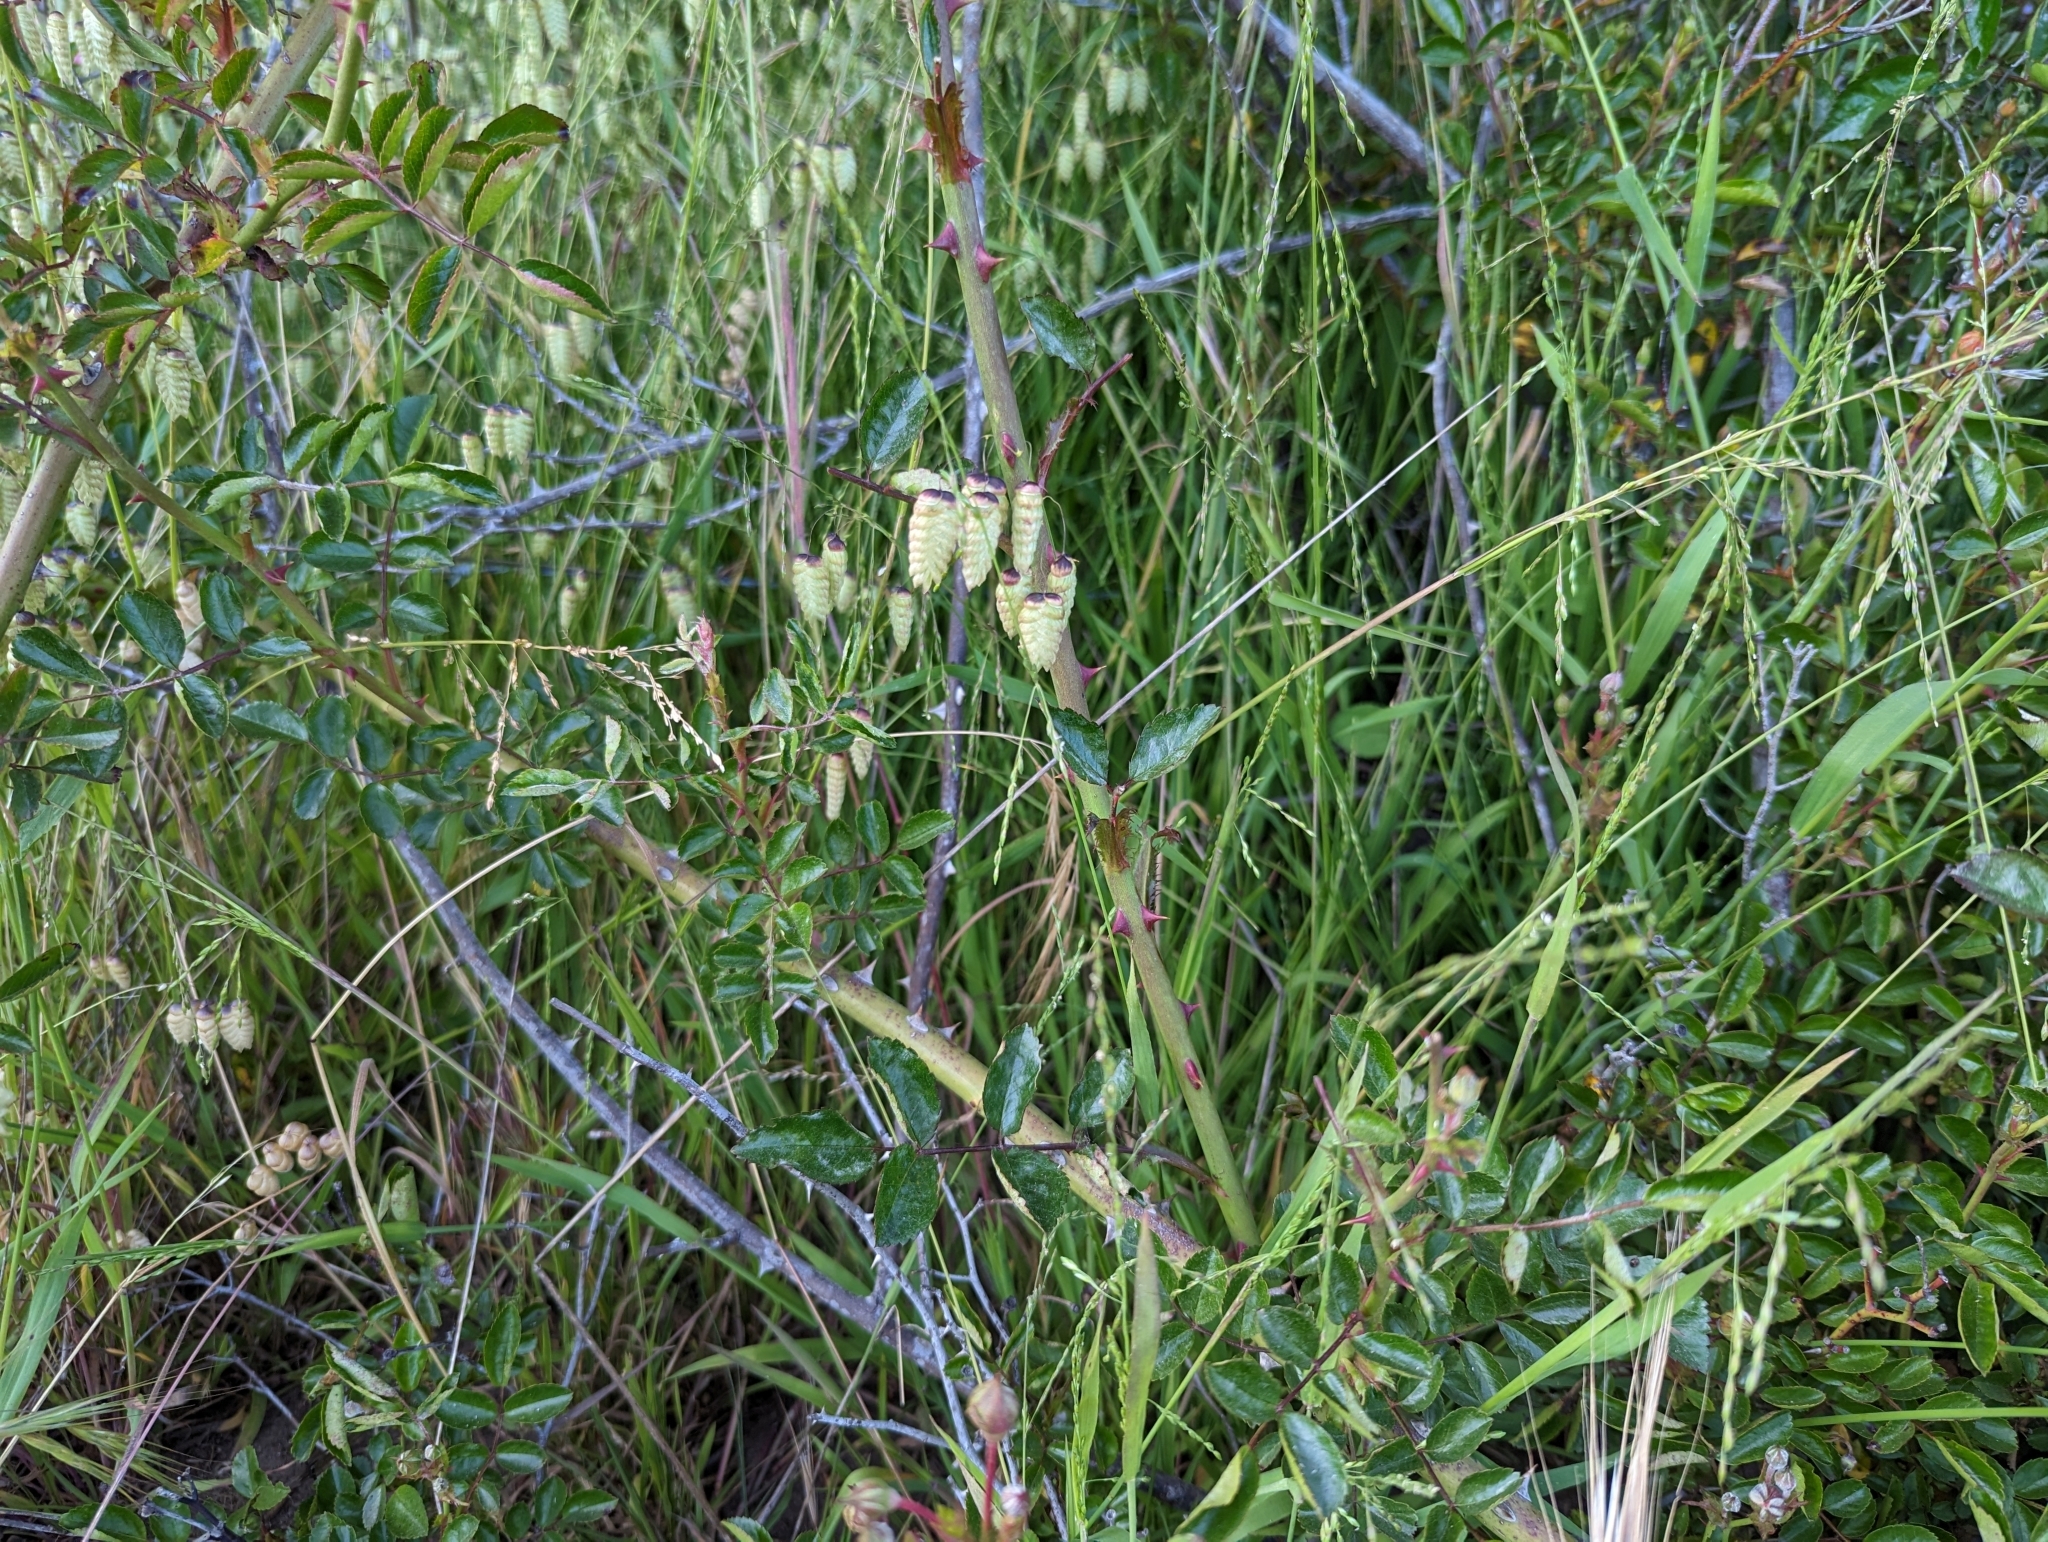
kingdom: Plantae
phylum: Tracheophyta
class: Liliopsida
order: Poales
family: Poaceae
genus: Briza
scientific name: Briza maxima
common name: Big quakinggrass
